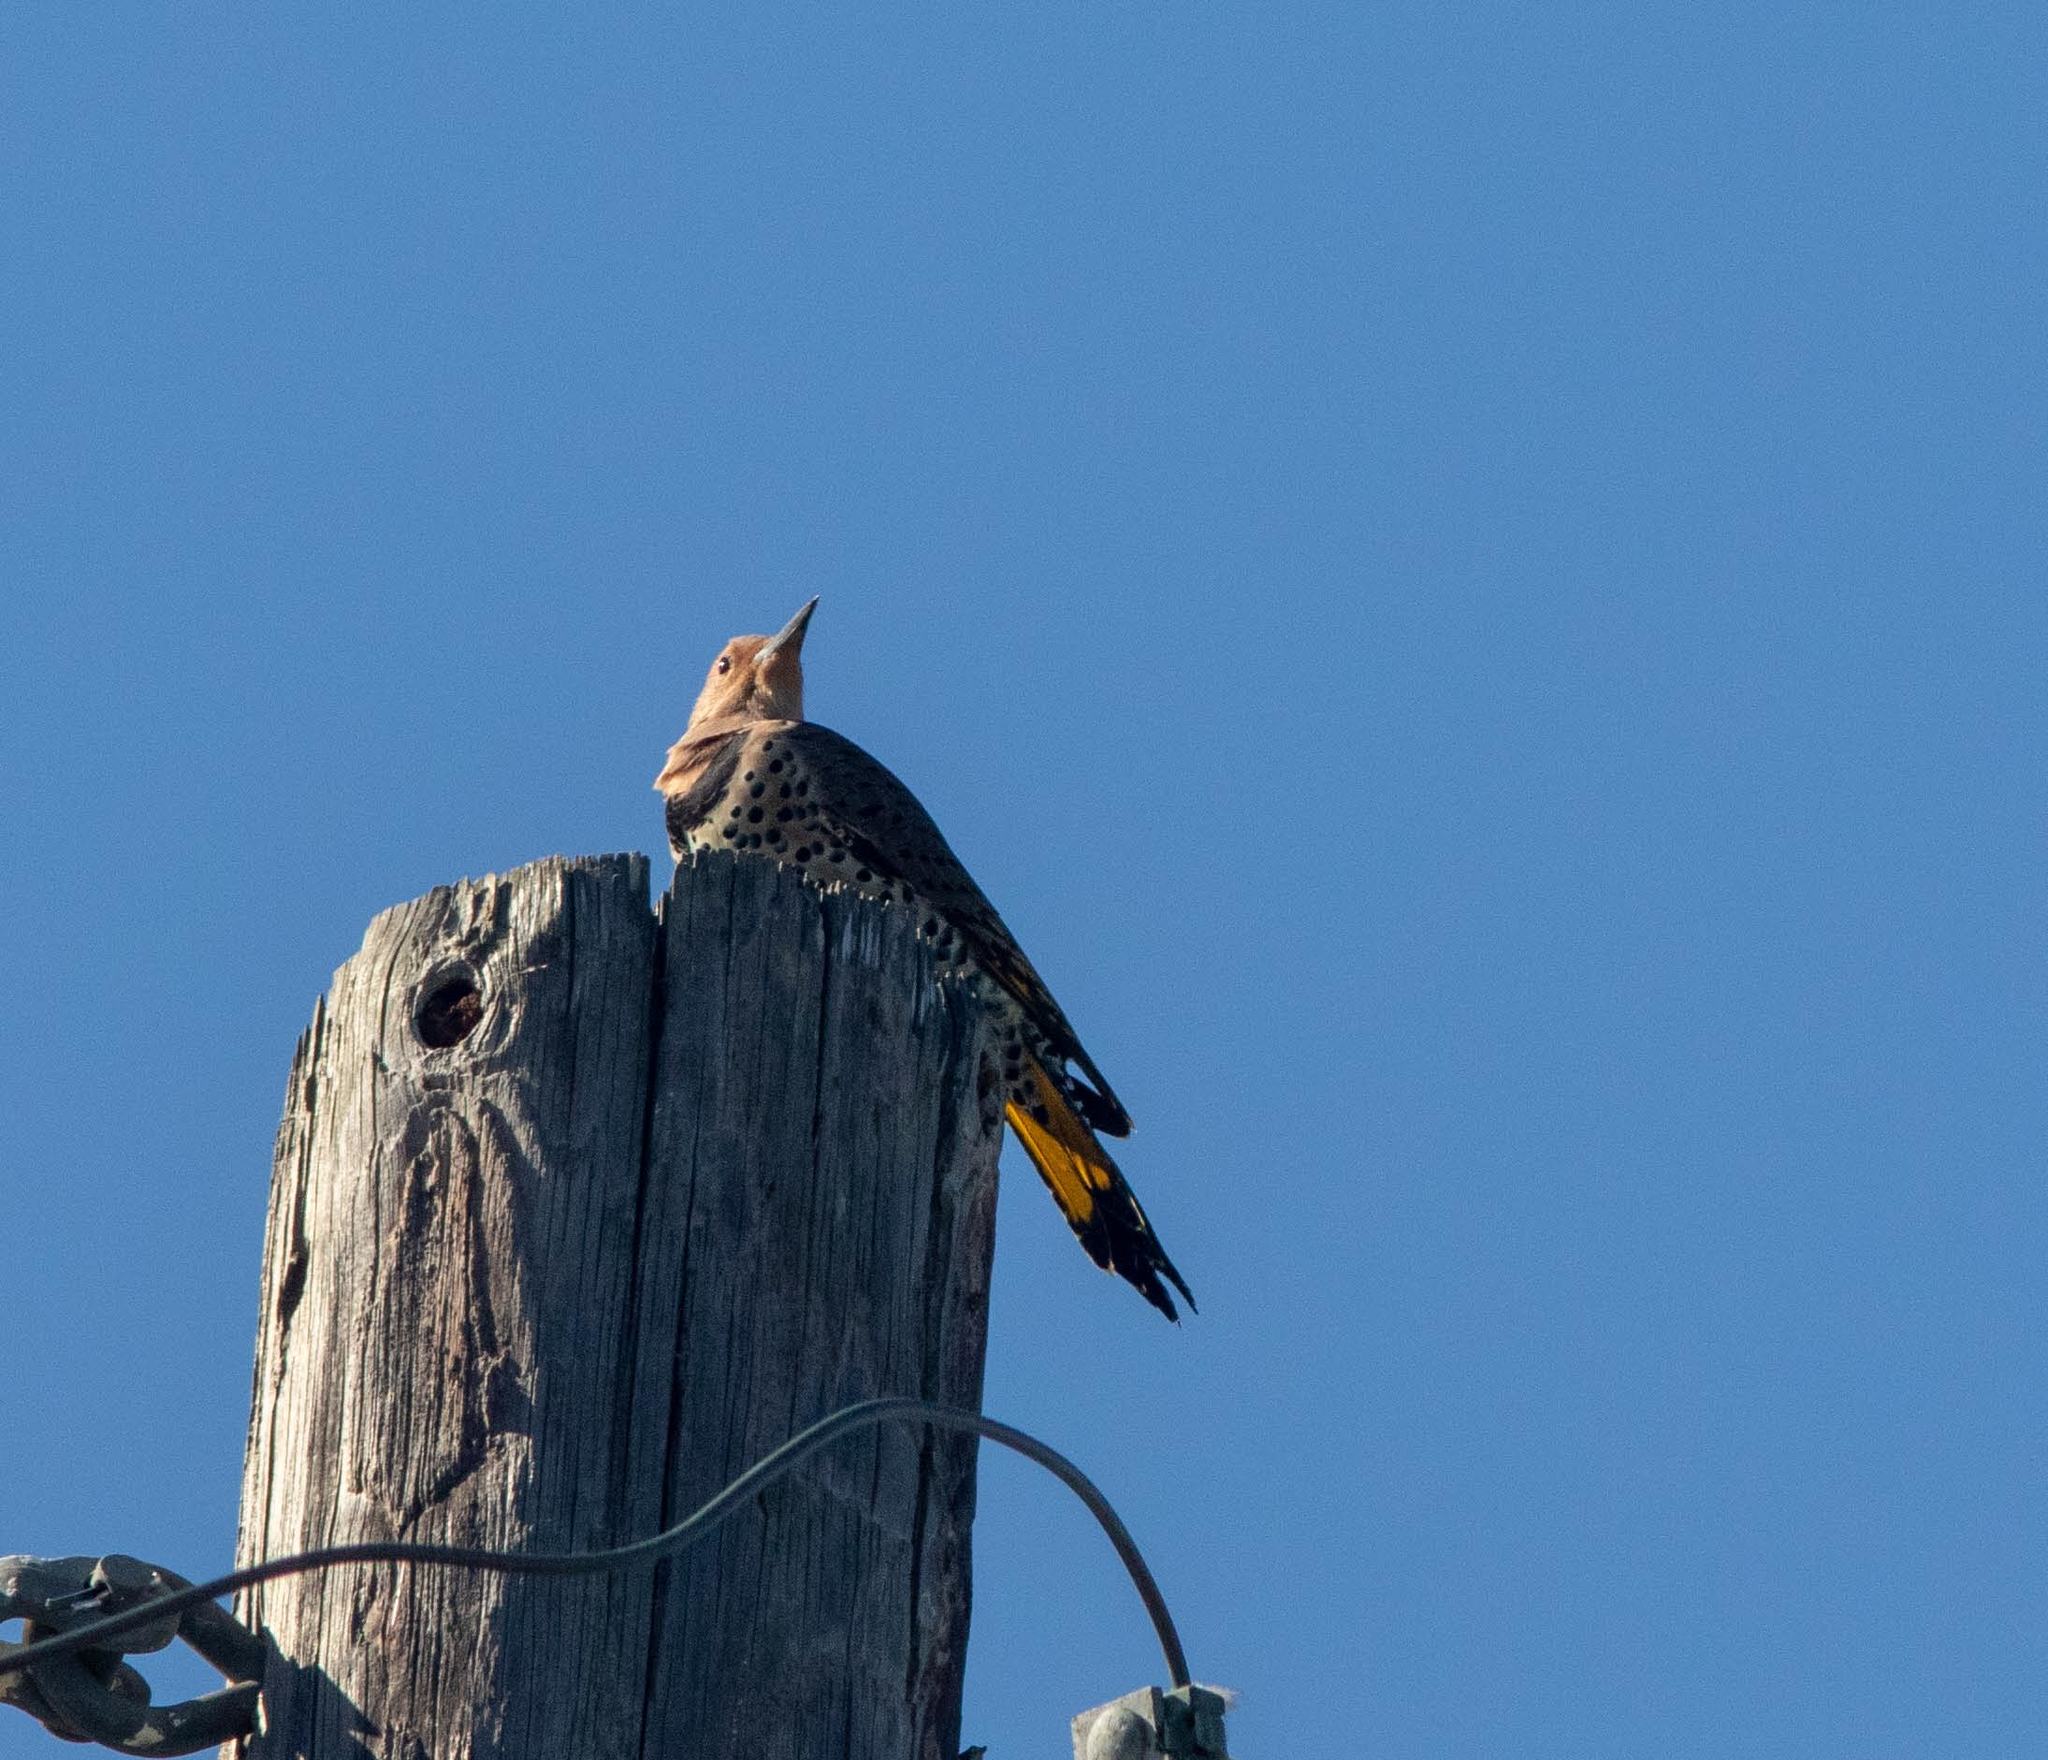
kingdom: Animalia
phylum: Chordata
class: Aves
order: Piciformes
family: Picidae
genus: Colaptes
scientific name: Colaptes auratus
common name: Northern flicker
